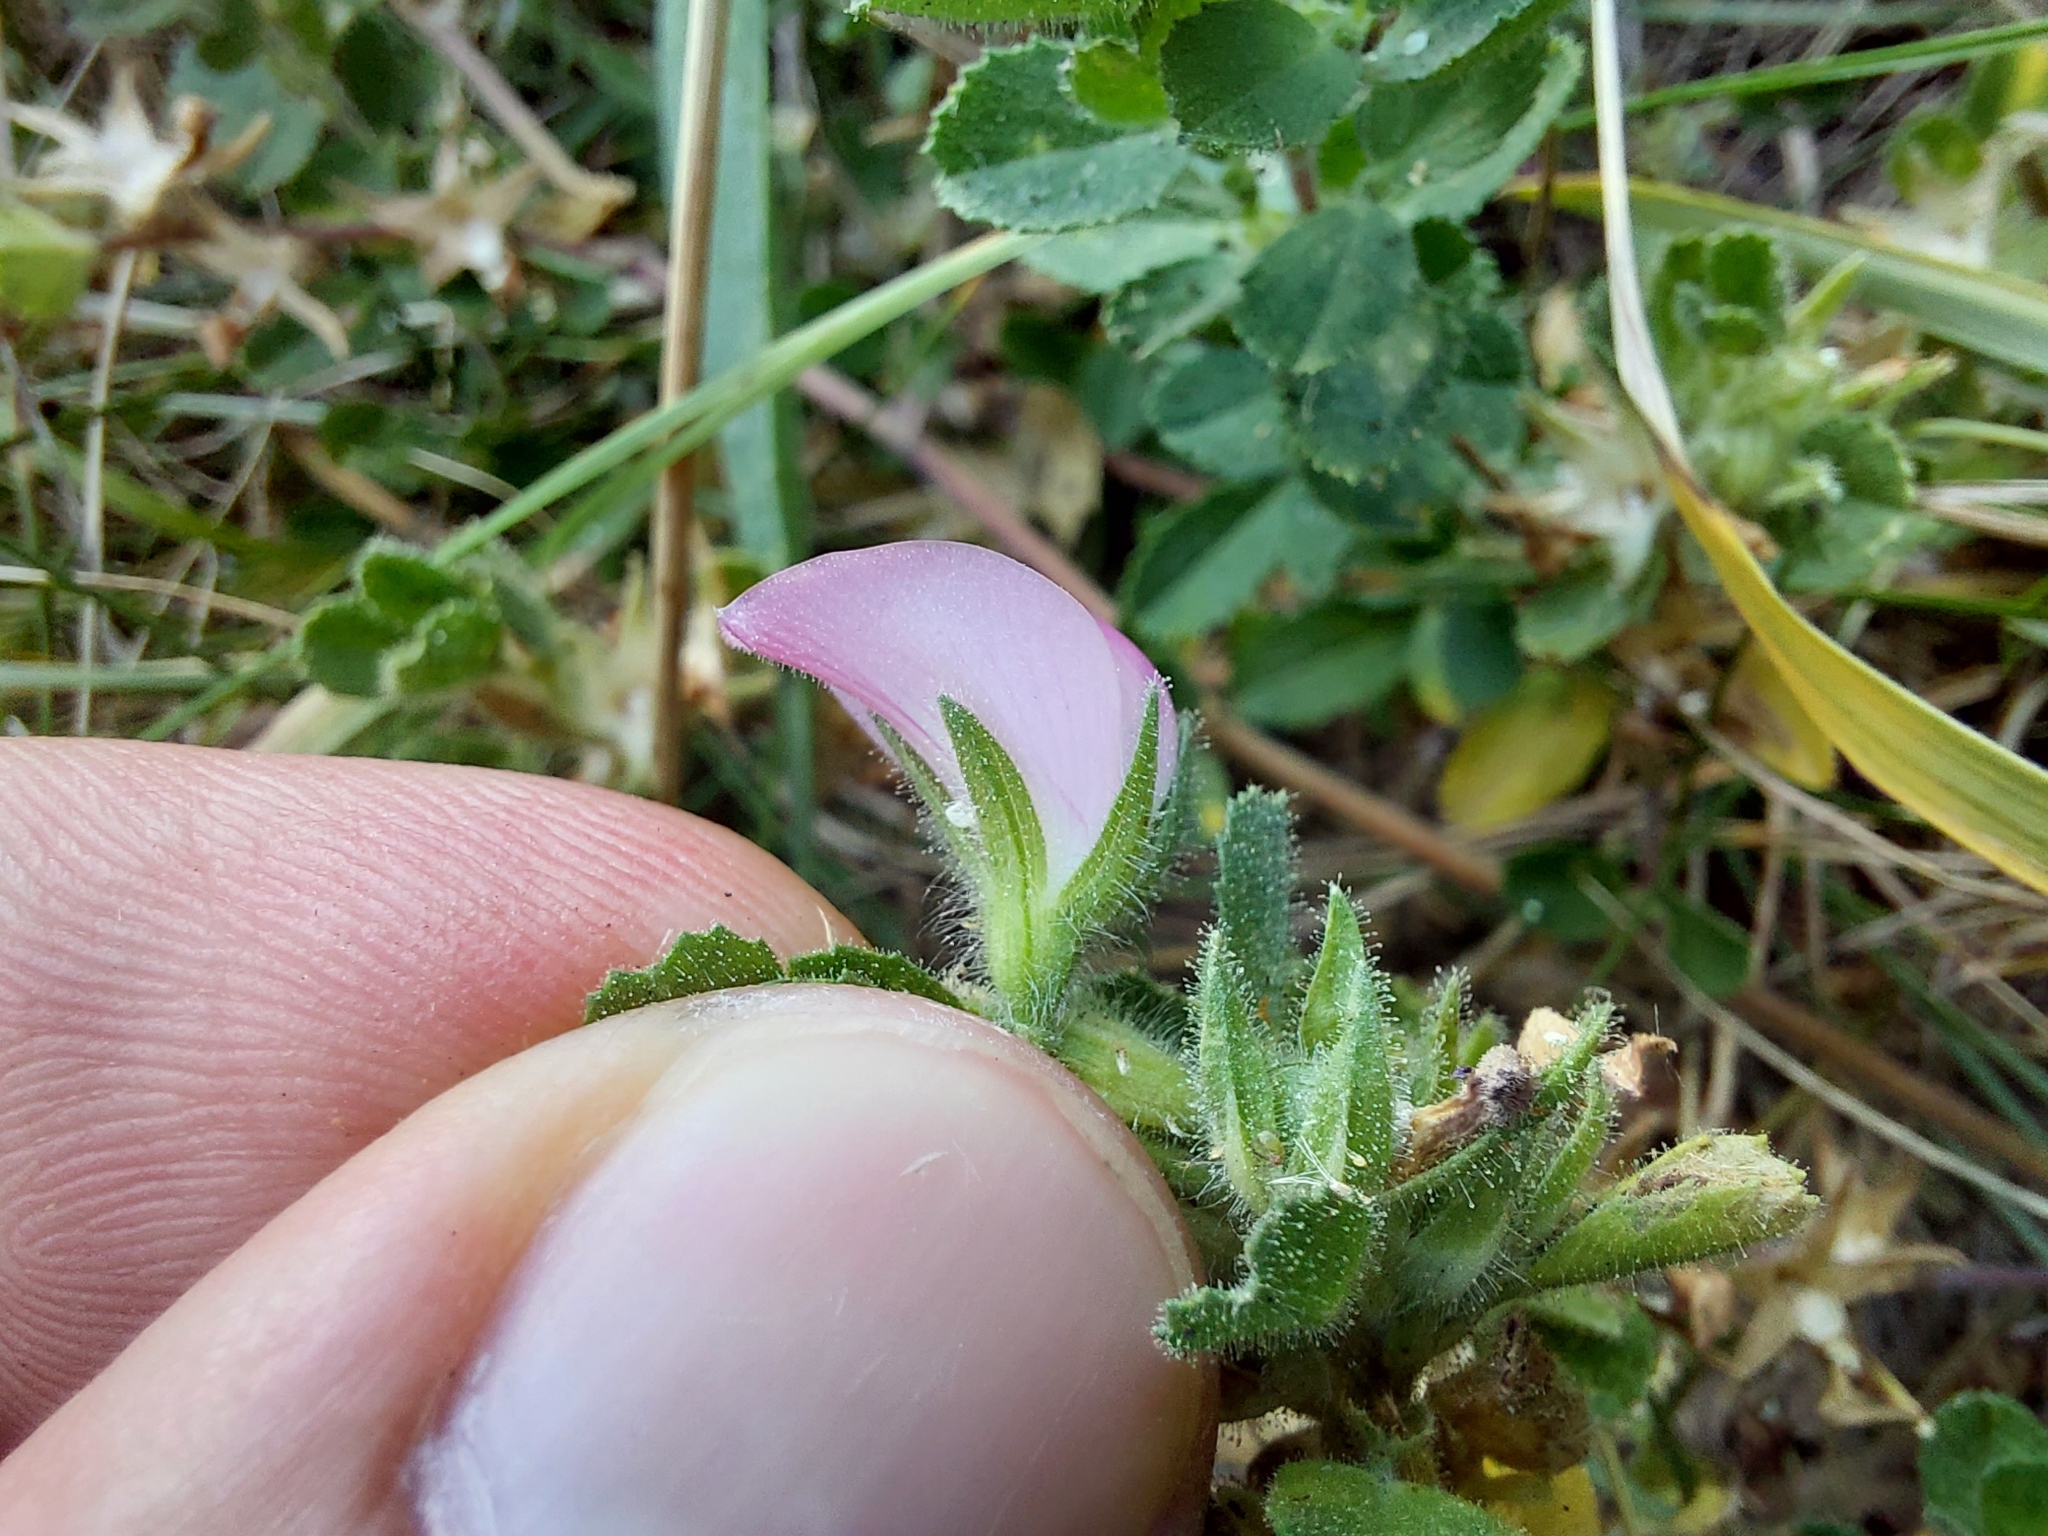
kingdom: Plantae
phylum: Tracheophyta
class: Magnoliopsida
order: Fabales
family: Fabaceae
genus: Ononis
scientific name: Ononis spinosa
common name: Spiny restharrow
